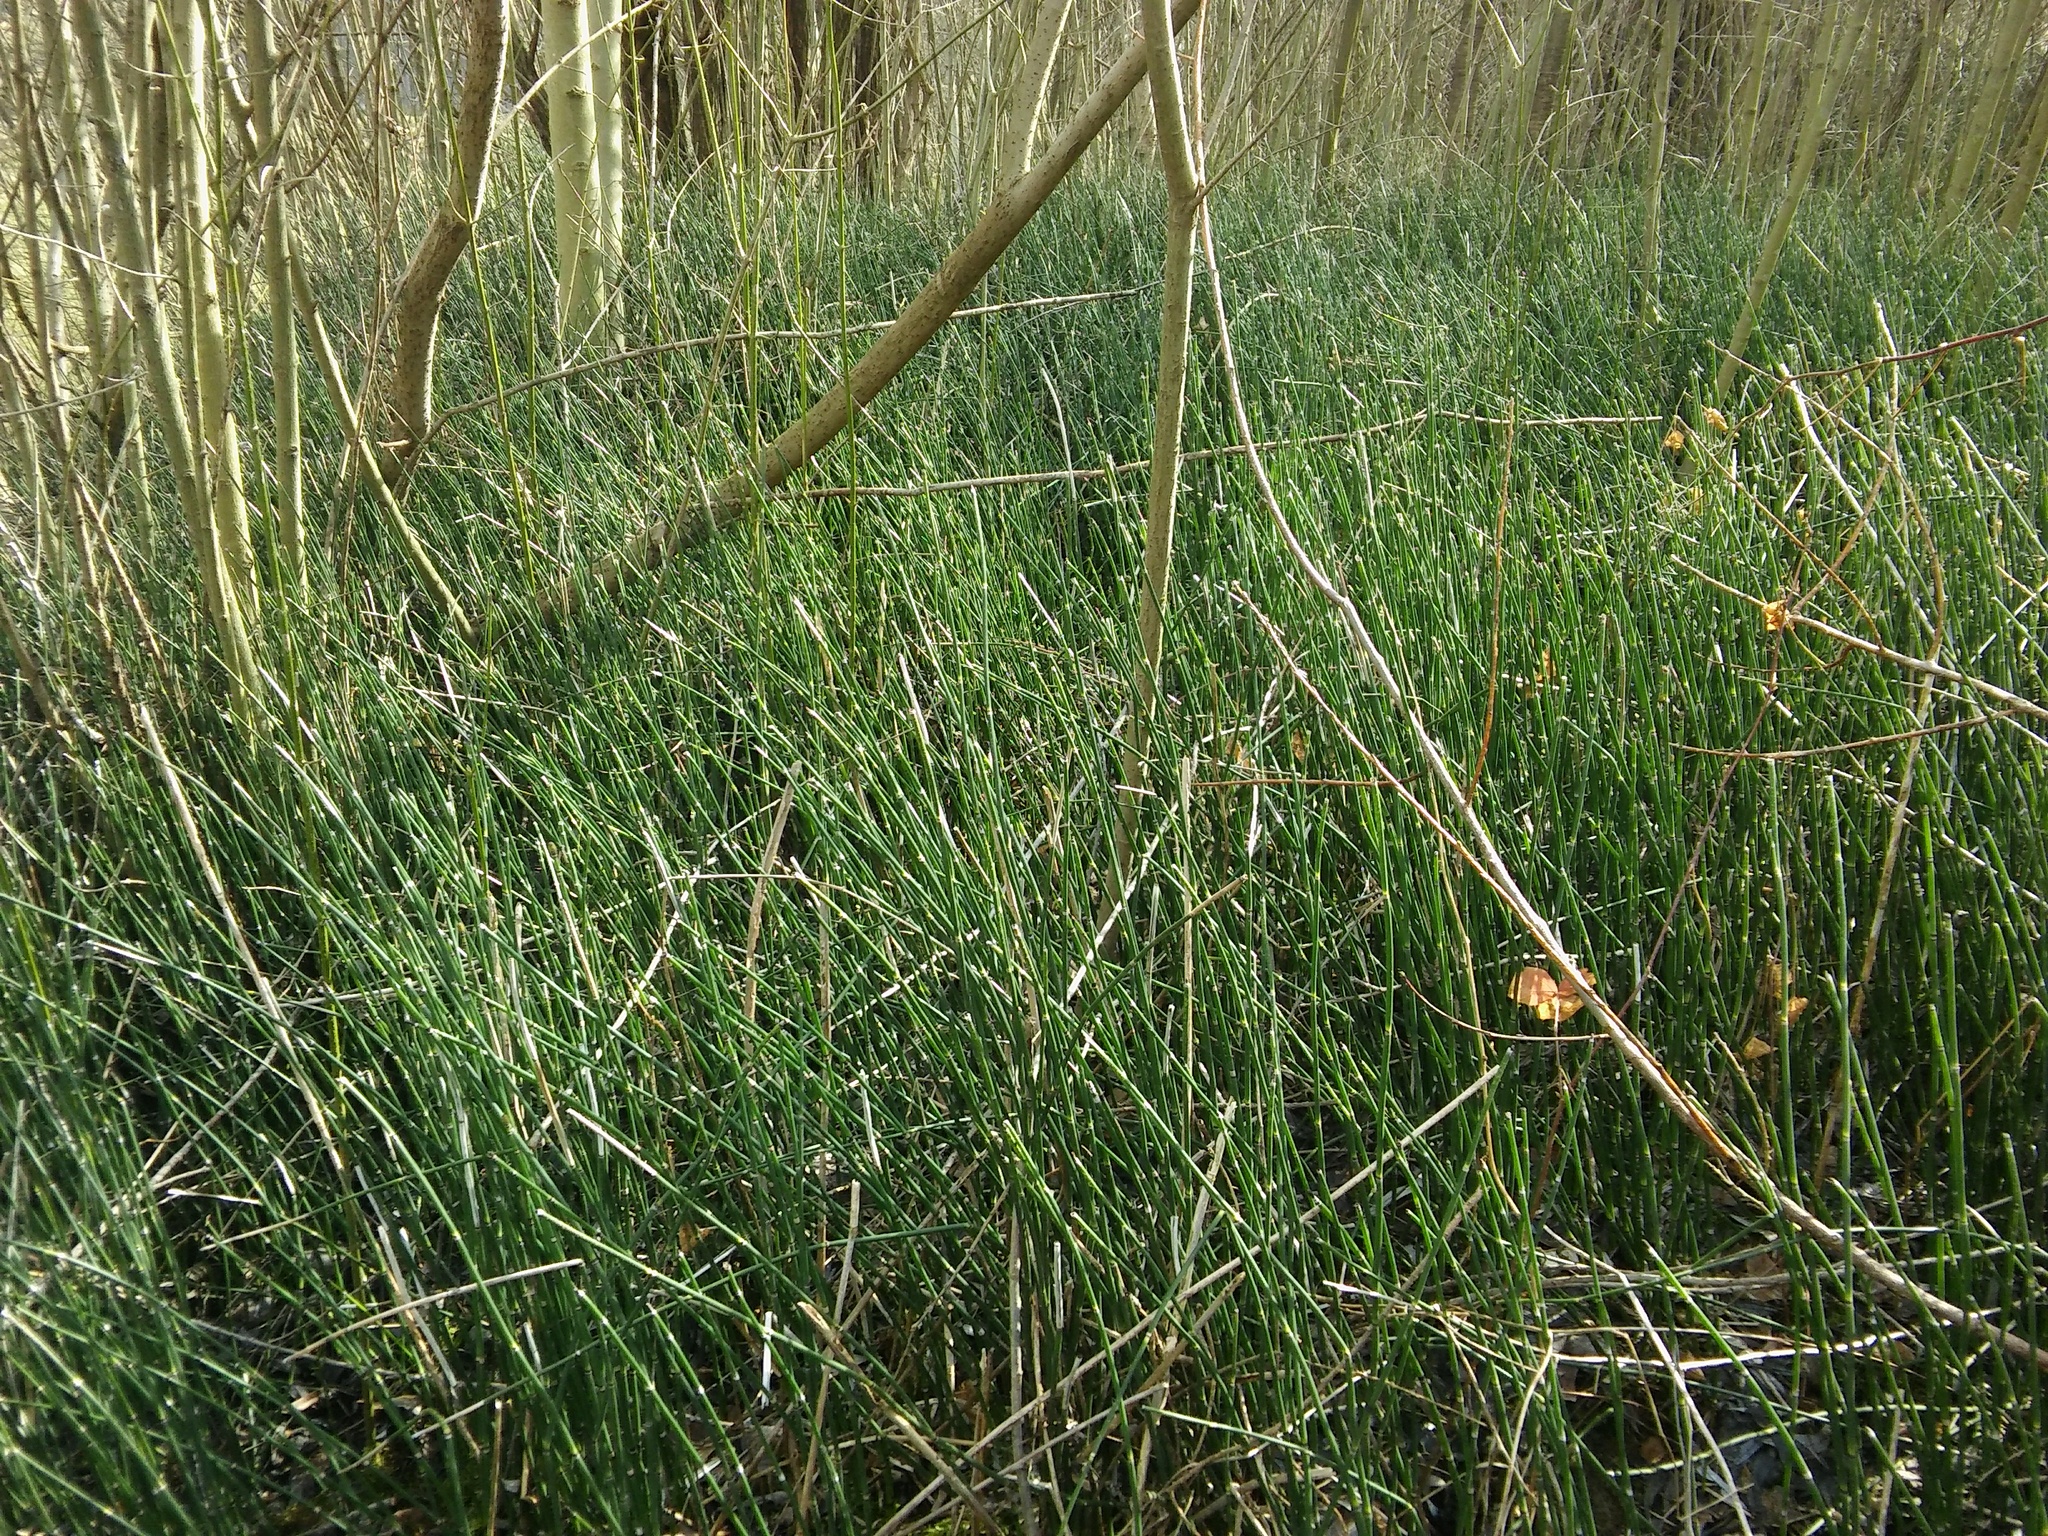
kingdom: Plantae
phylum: Tracheophyta
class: Polypodiopsida
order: Equisetales
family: Equisetaceae
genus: Equisetum
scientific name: Equisetum hyemale
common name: Rough horsetail
